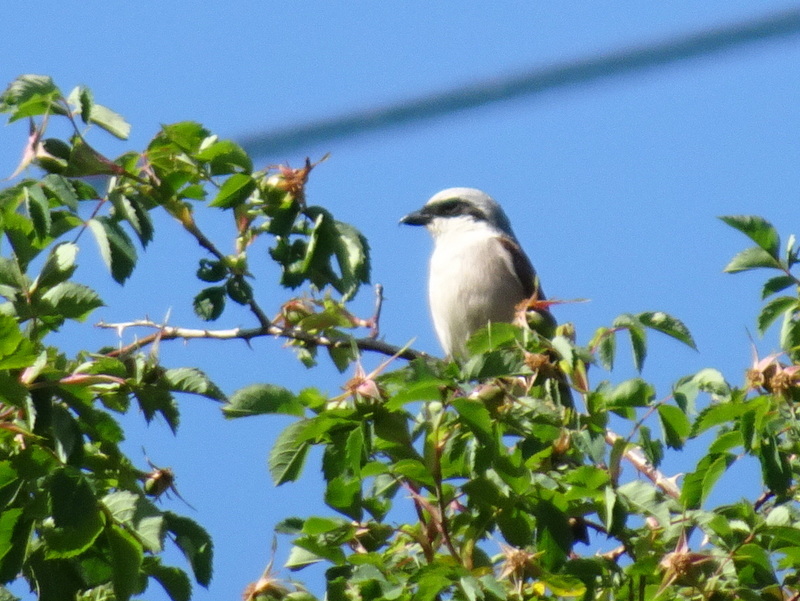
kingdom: Animalia
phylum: Chordata
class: Aves
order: Passeriformes
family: Laniidae
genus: Lanius
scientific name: Lanius collurio
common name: Red-backed shrike
